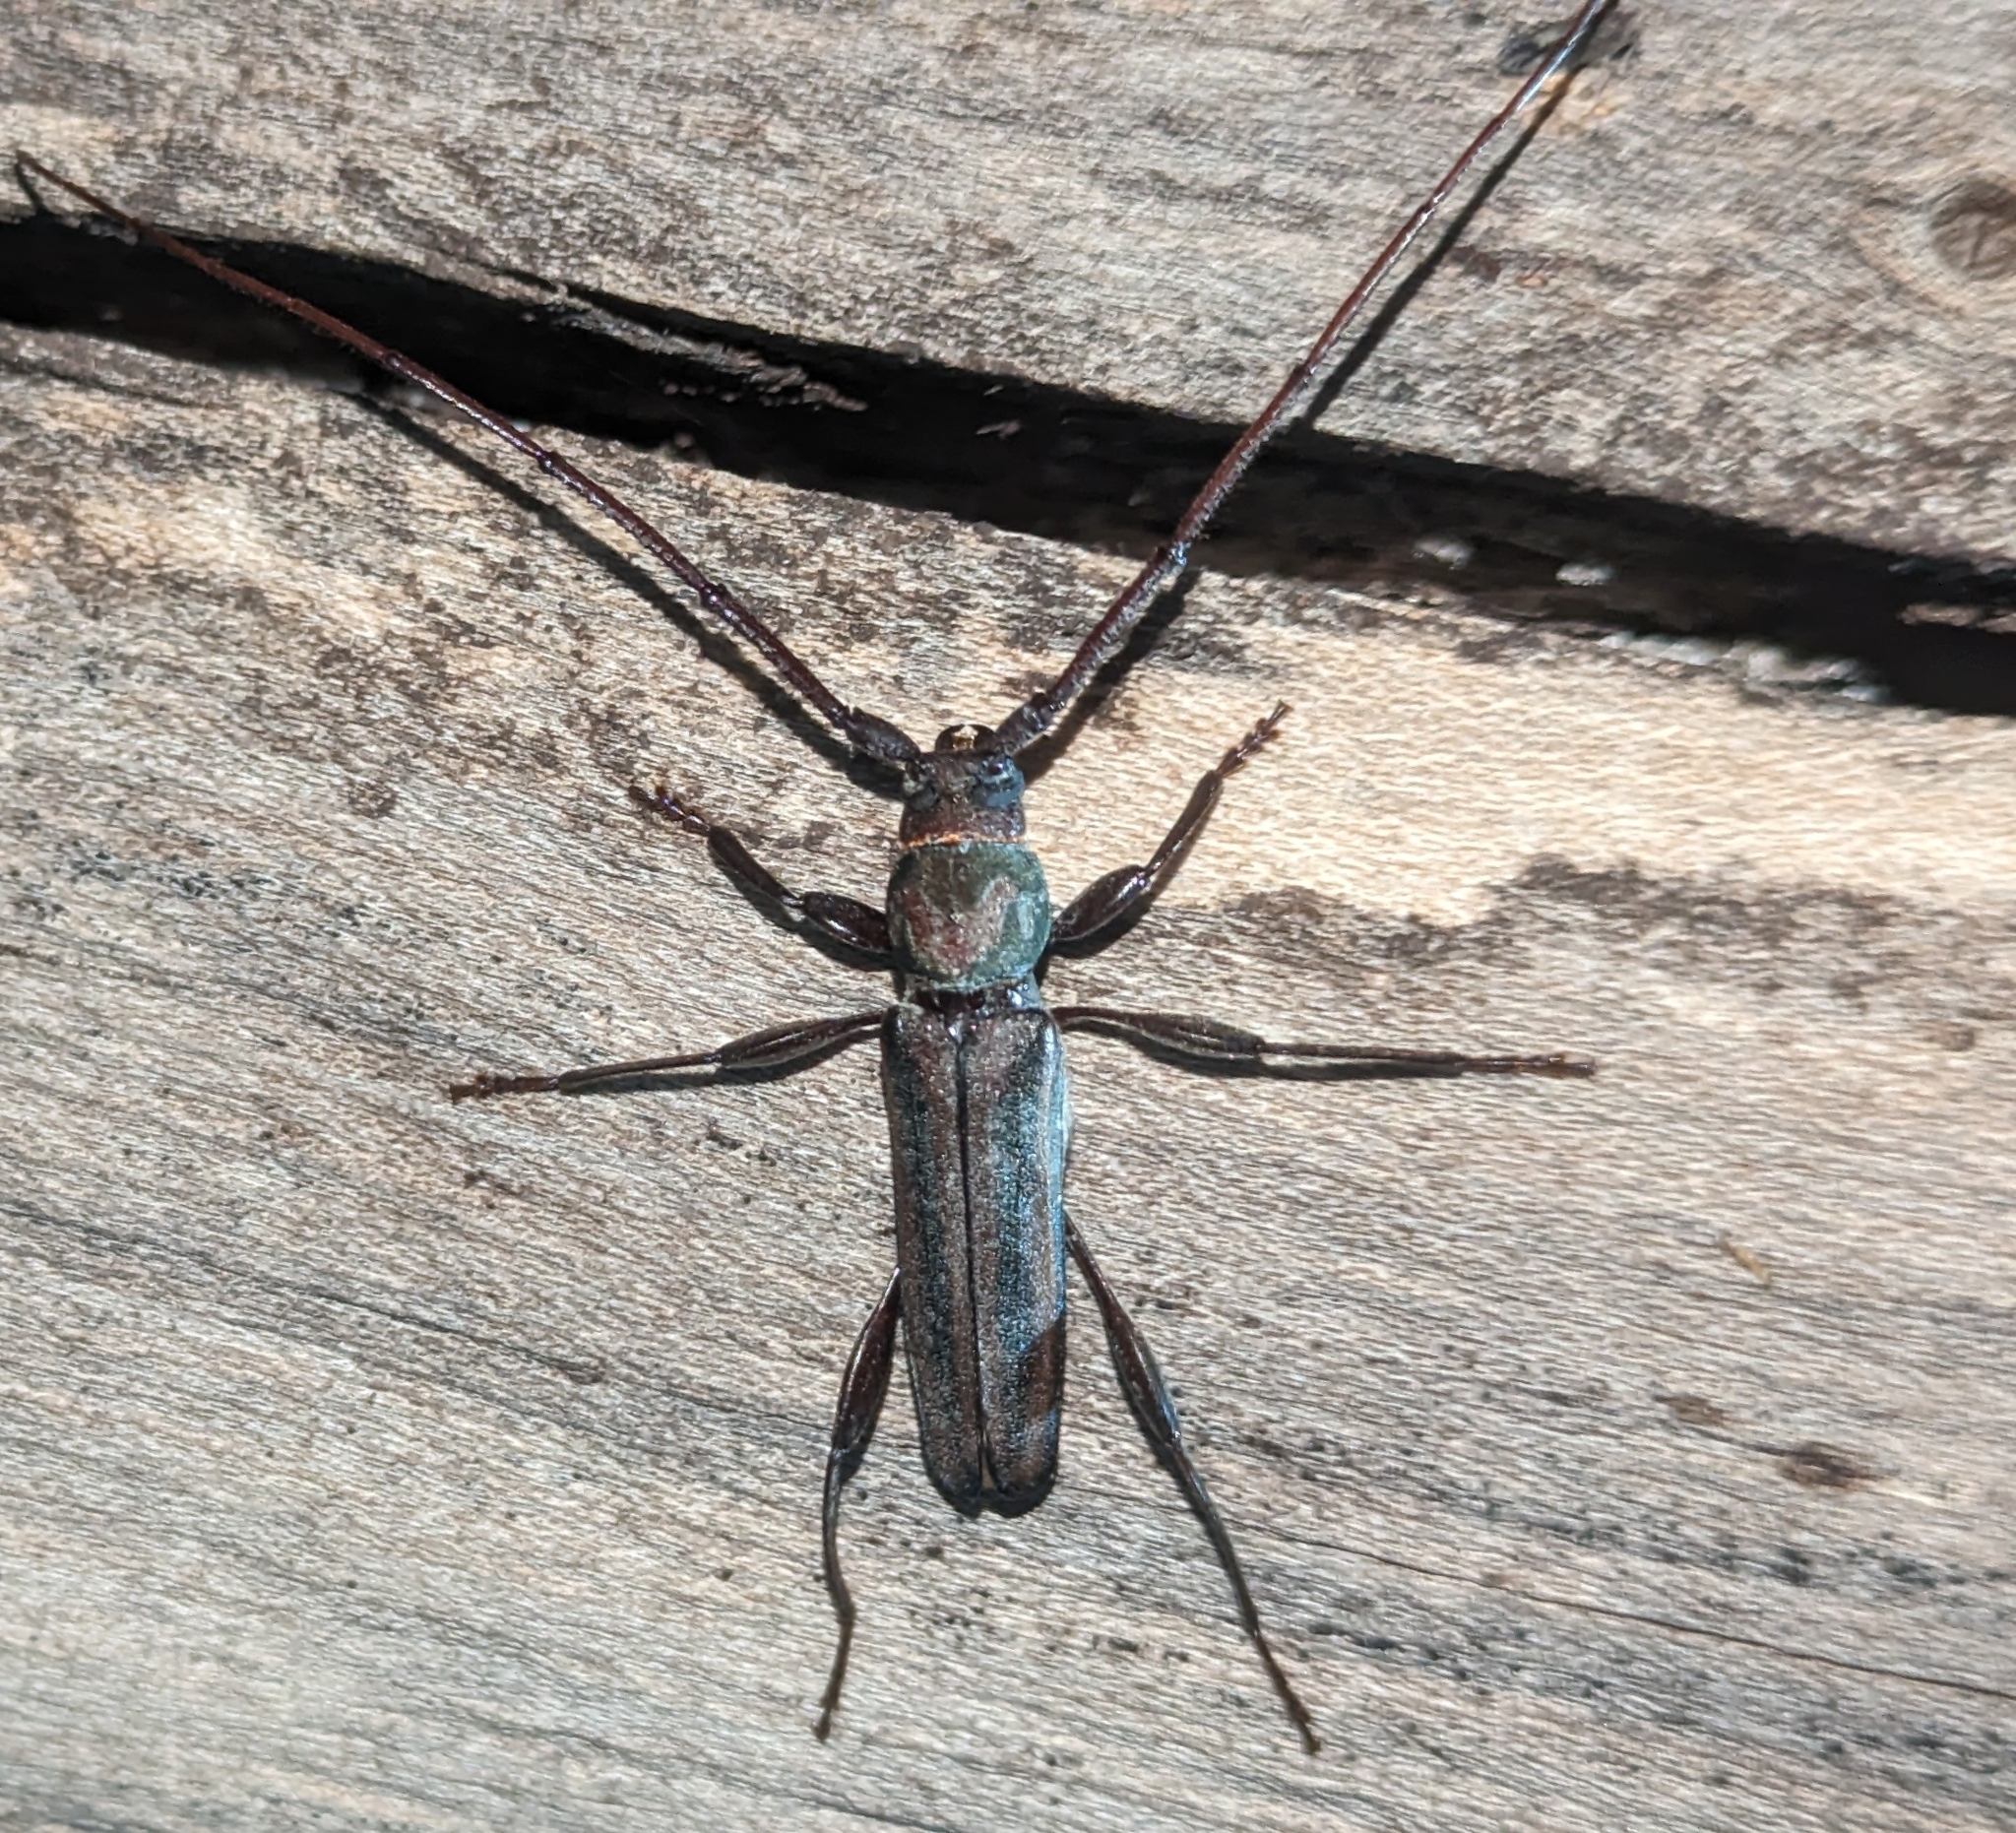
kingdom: Animalia
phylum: Arthropoda
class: Insecta
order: Coleoptera
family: Cerambycidae
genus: Xystrocera
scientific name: Xystrocera dispar
